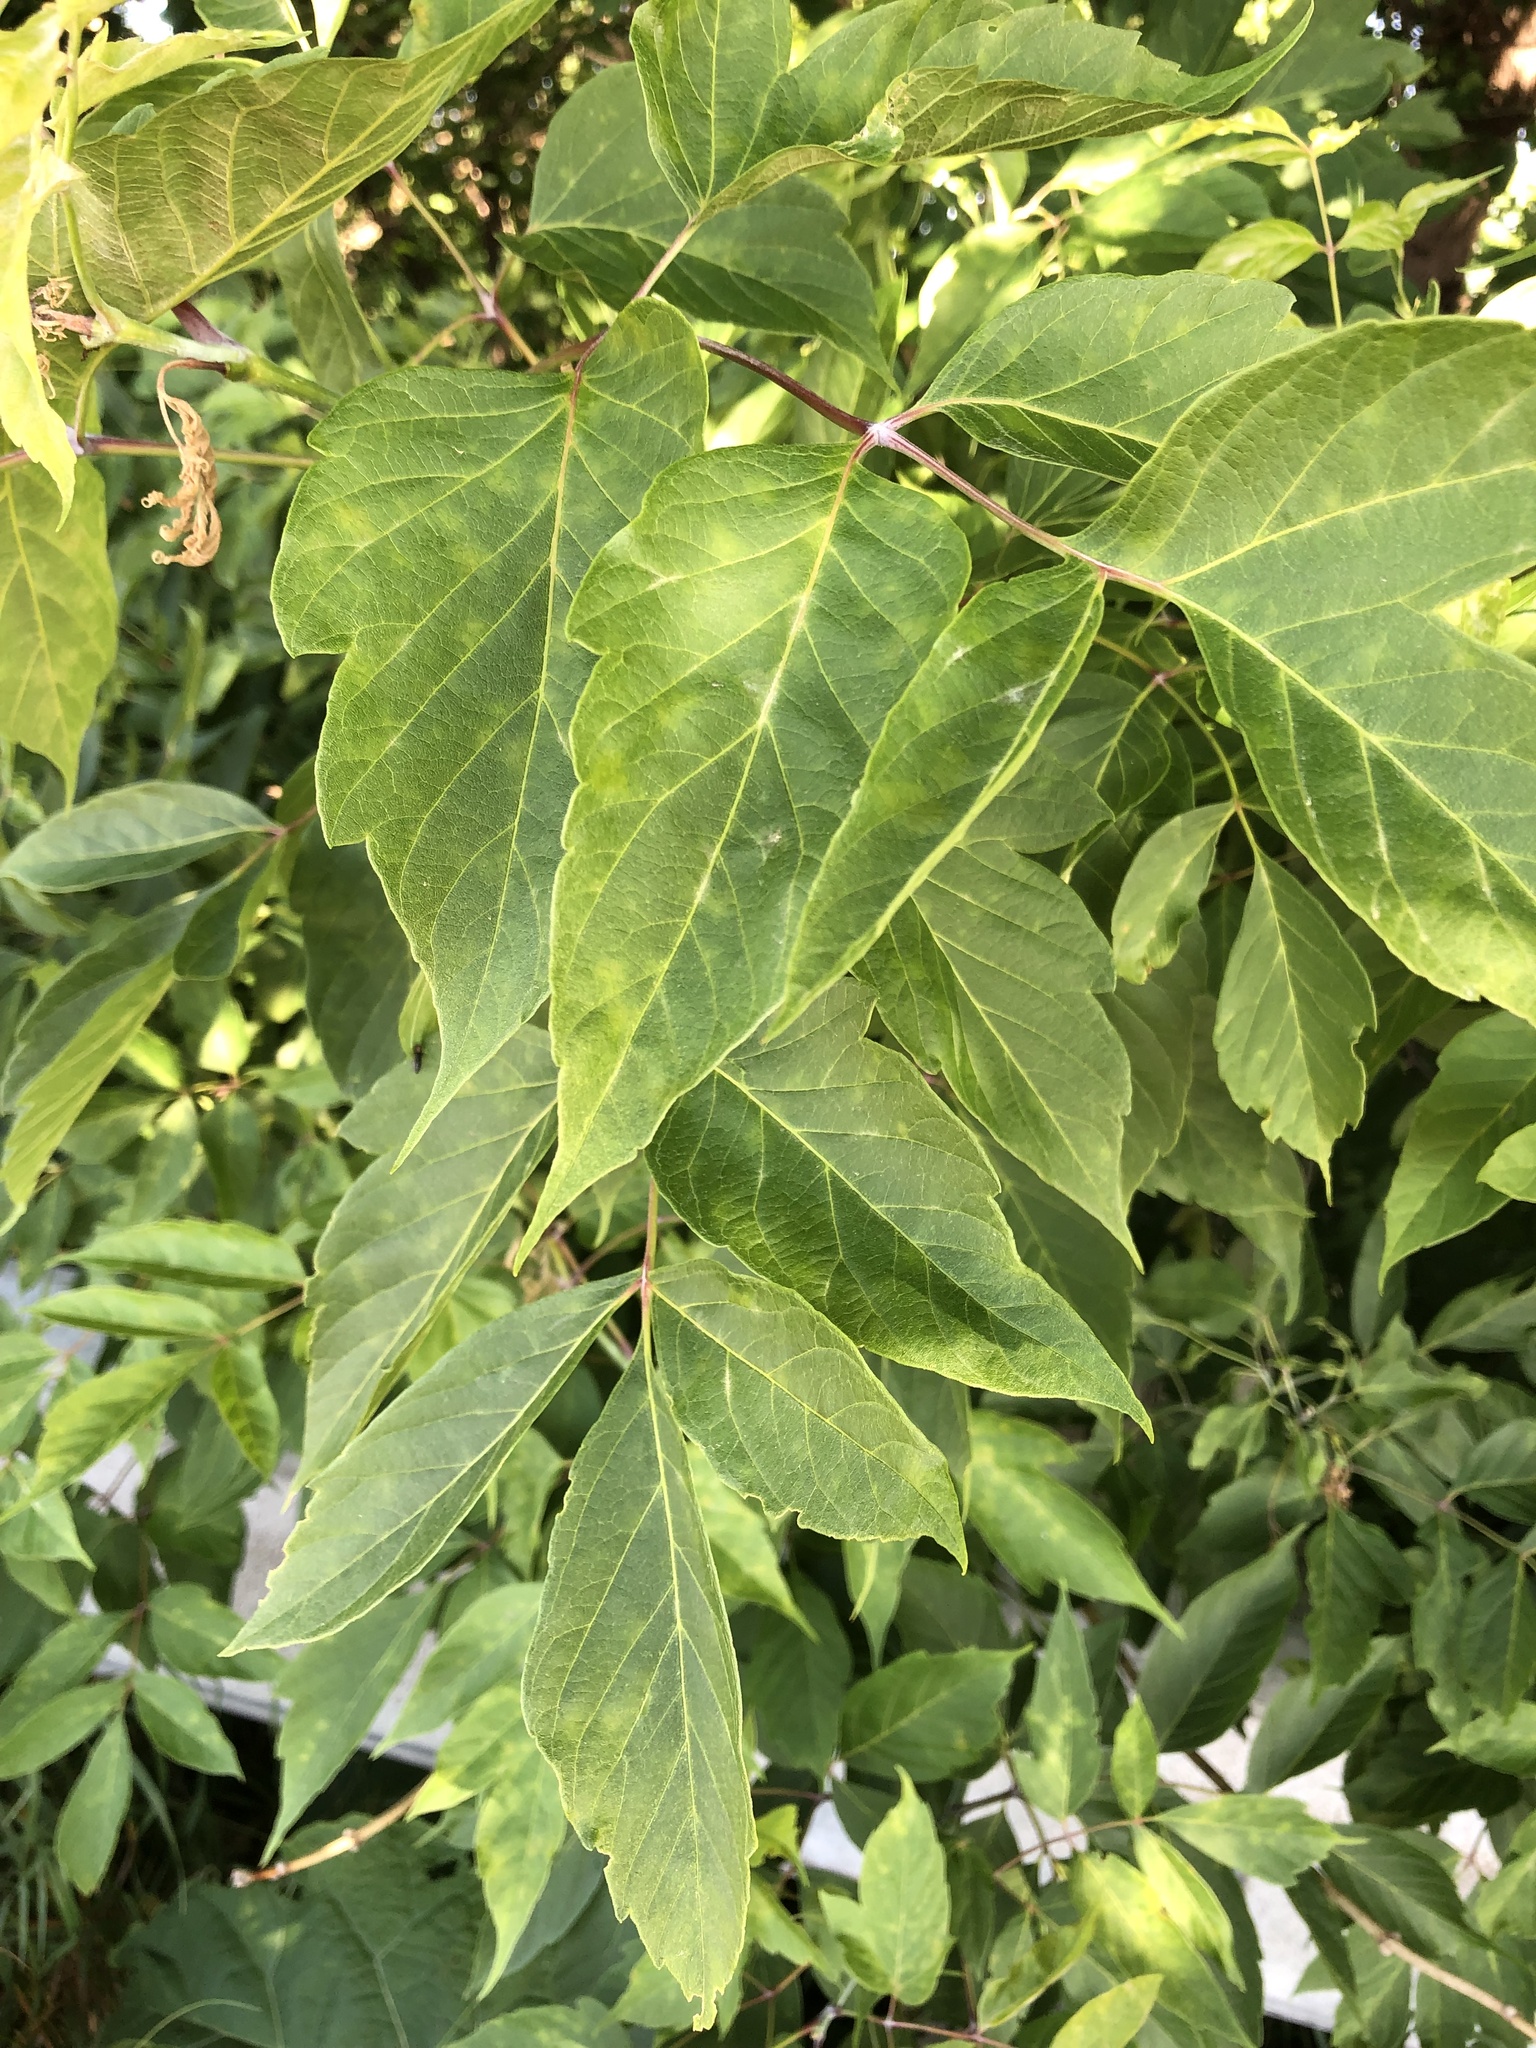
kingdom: Plantae
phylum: Tracheophyta
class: Magnoliopsida
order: Sapindales
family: Sapindaceae
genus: Acer
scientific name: Acer negundo
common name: Ashleaf maple
